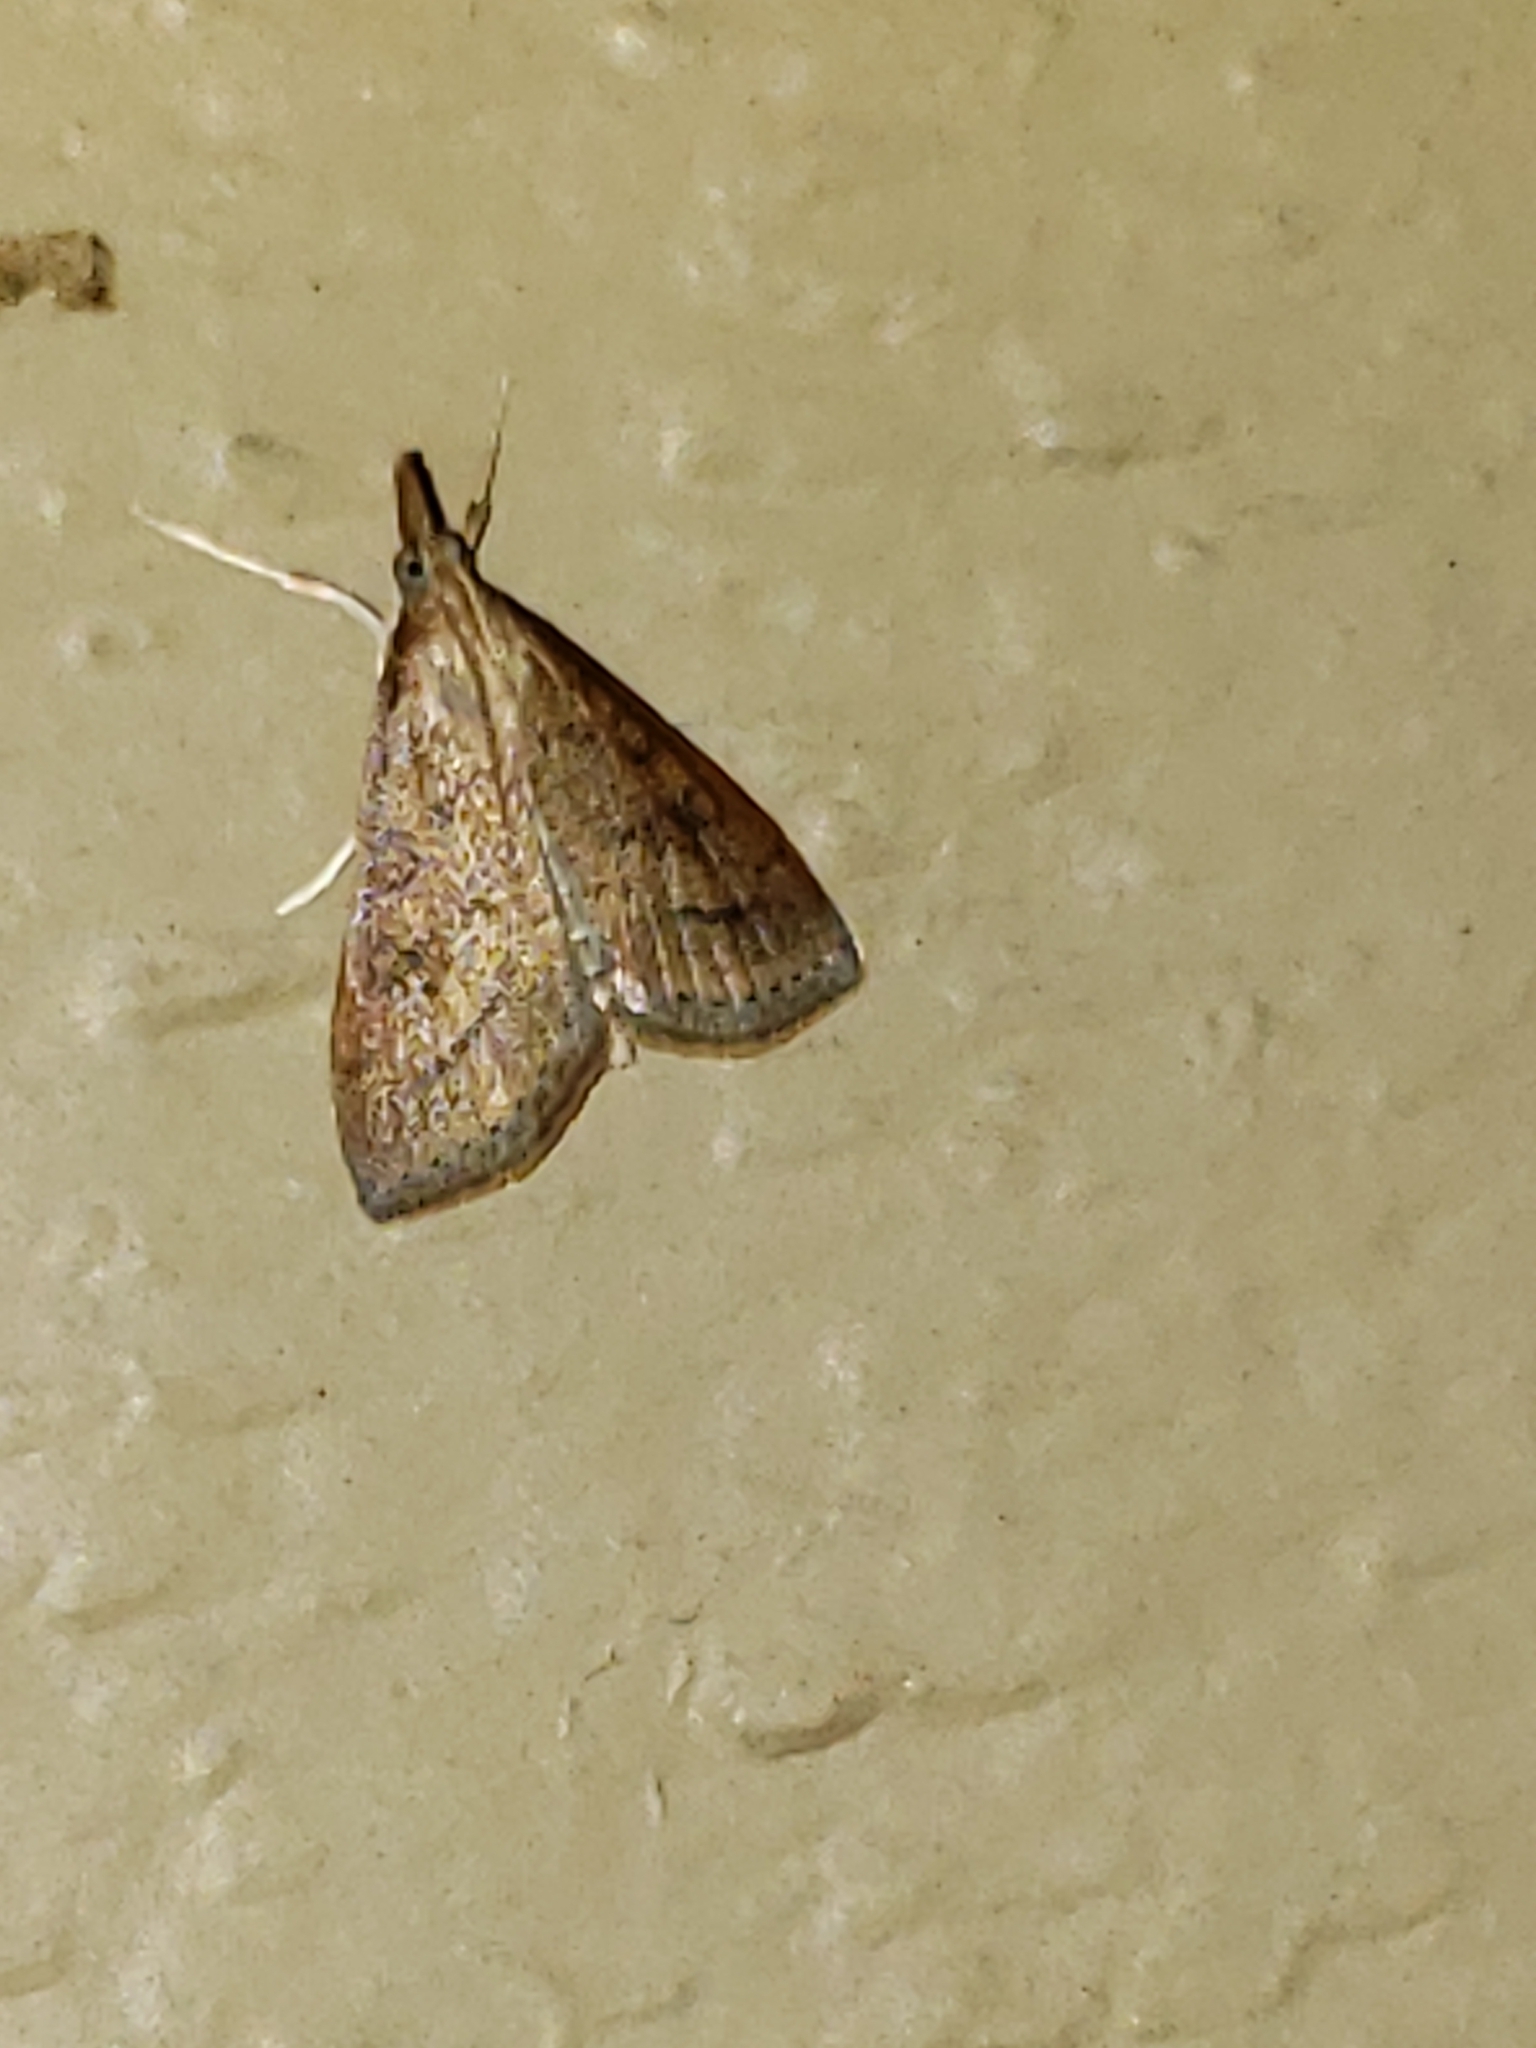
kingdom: Animalia
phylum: Arthropoda
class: Insecta
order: Lepidoptera
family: Crambidae
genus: Udea
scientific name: Udea rubigalis
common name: Celery leaftier moth
